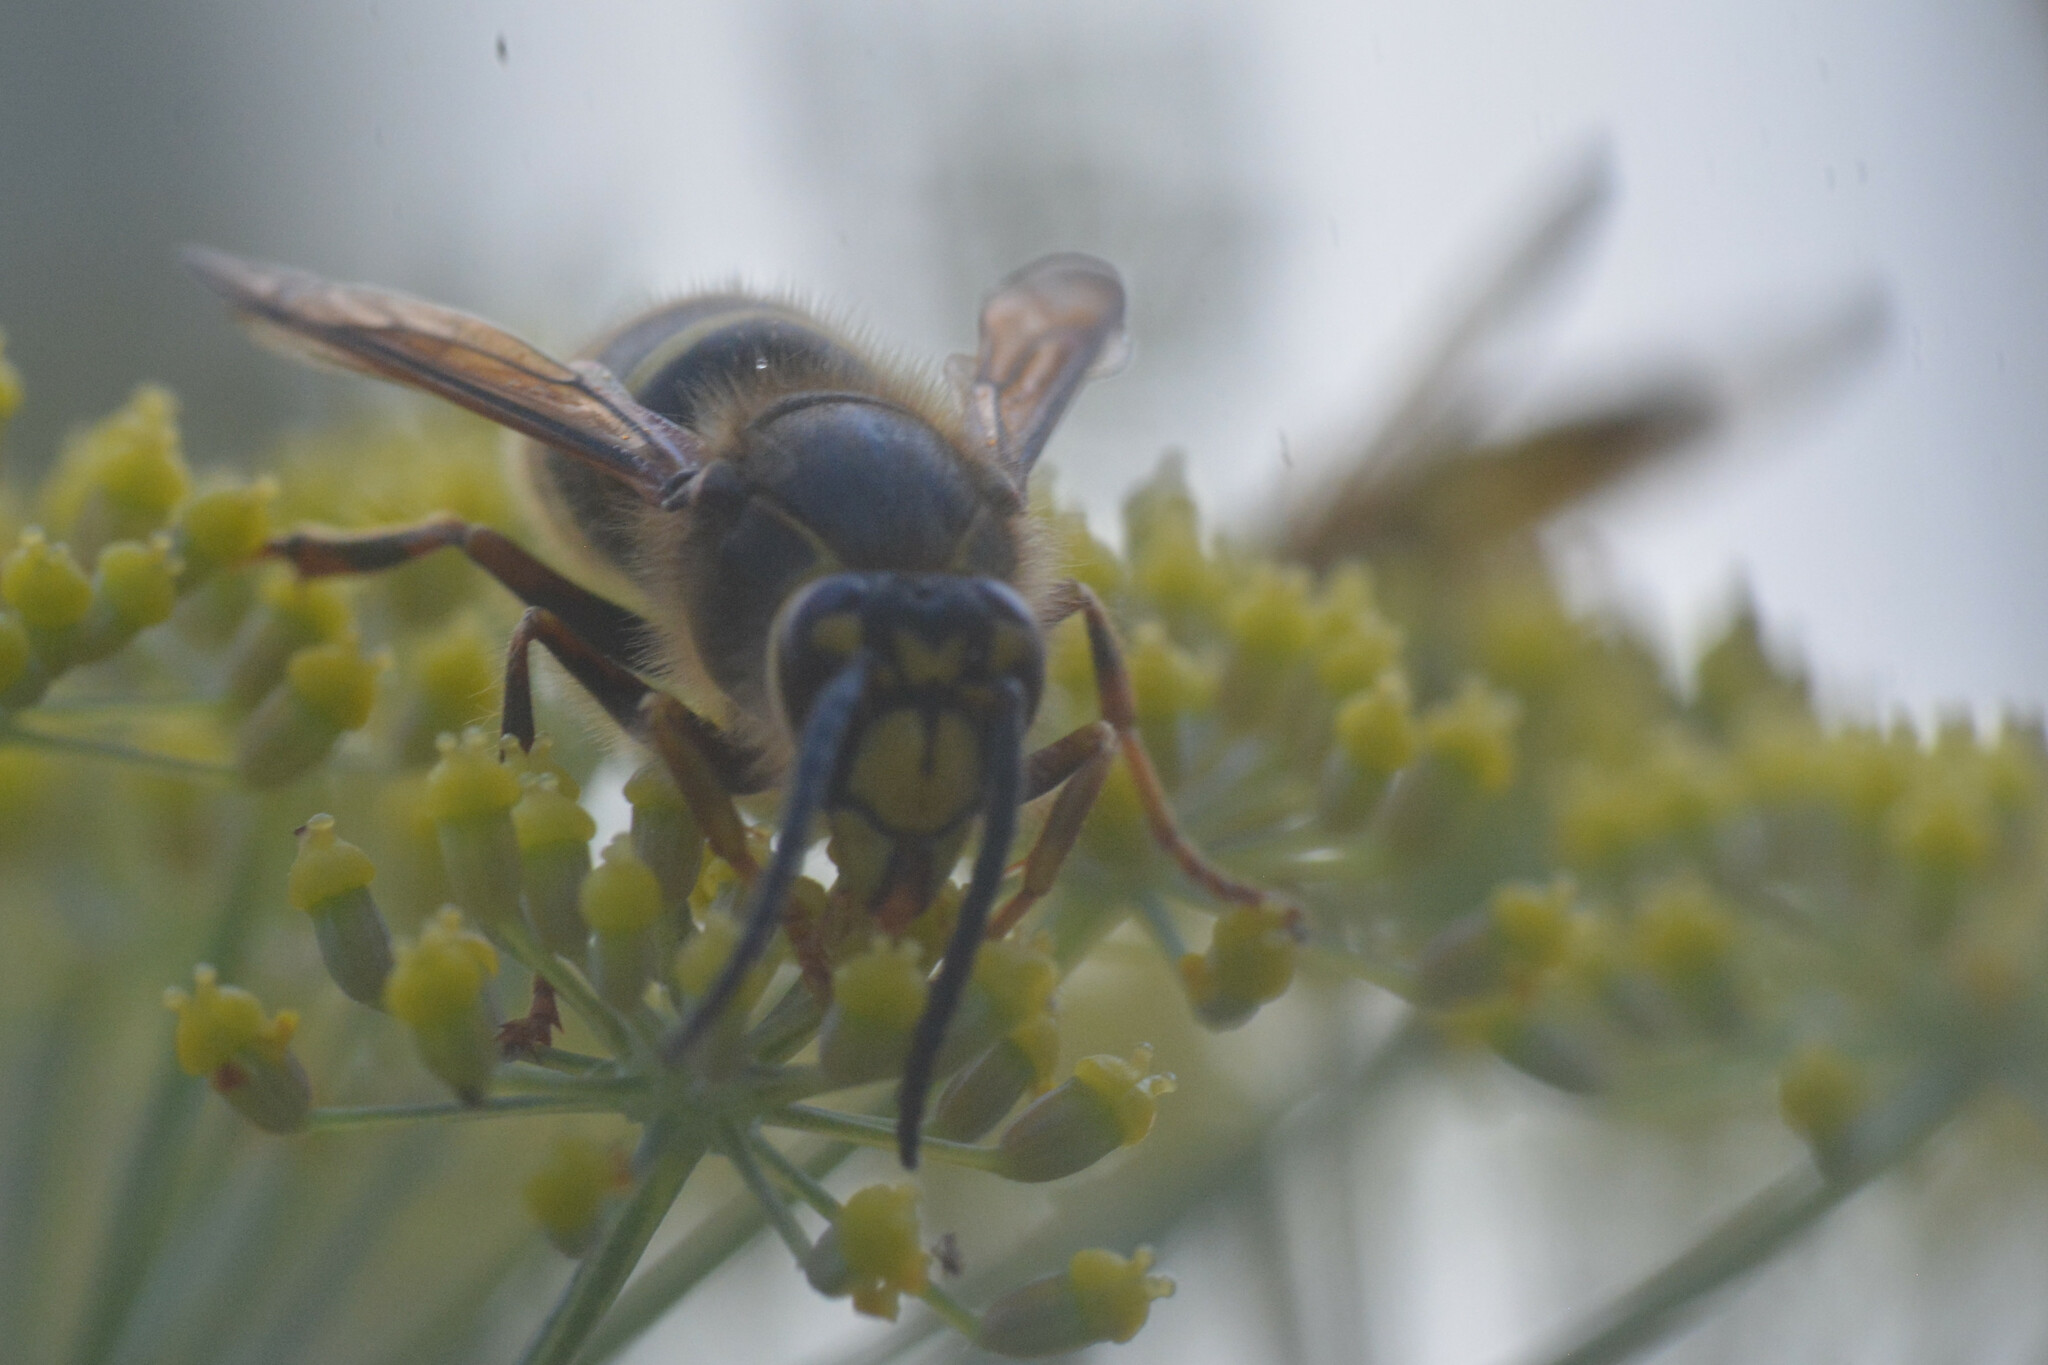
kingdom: Animalia
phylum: Arthropoda
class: Insecta
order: Hymenoptera
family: Vespidae
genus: Dolichovespula
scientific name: Dolichovespula media
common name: Median wasp
